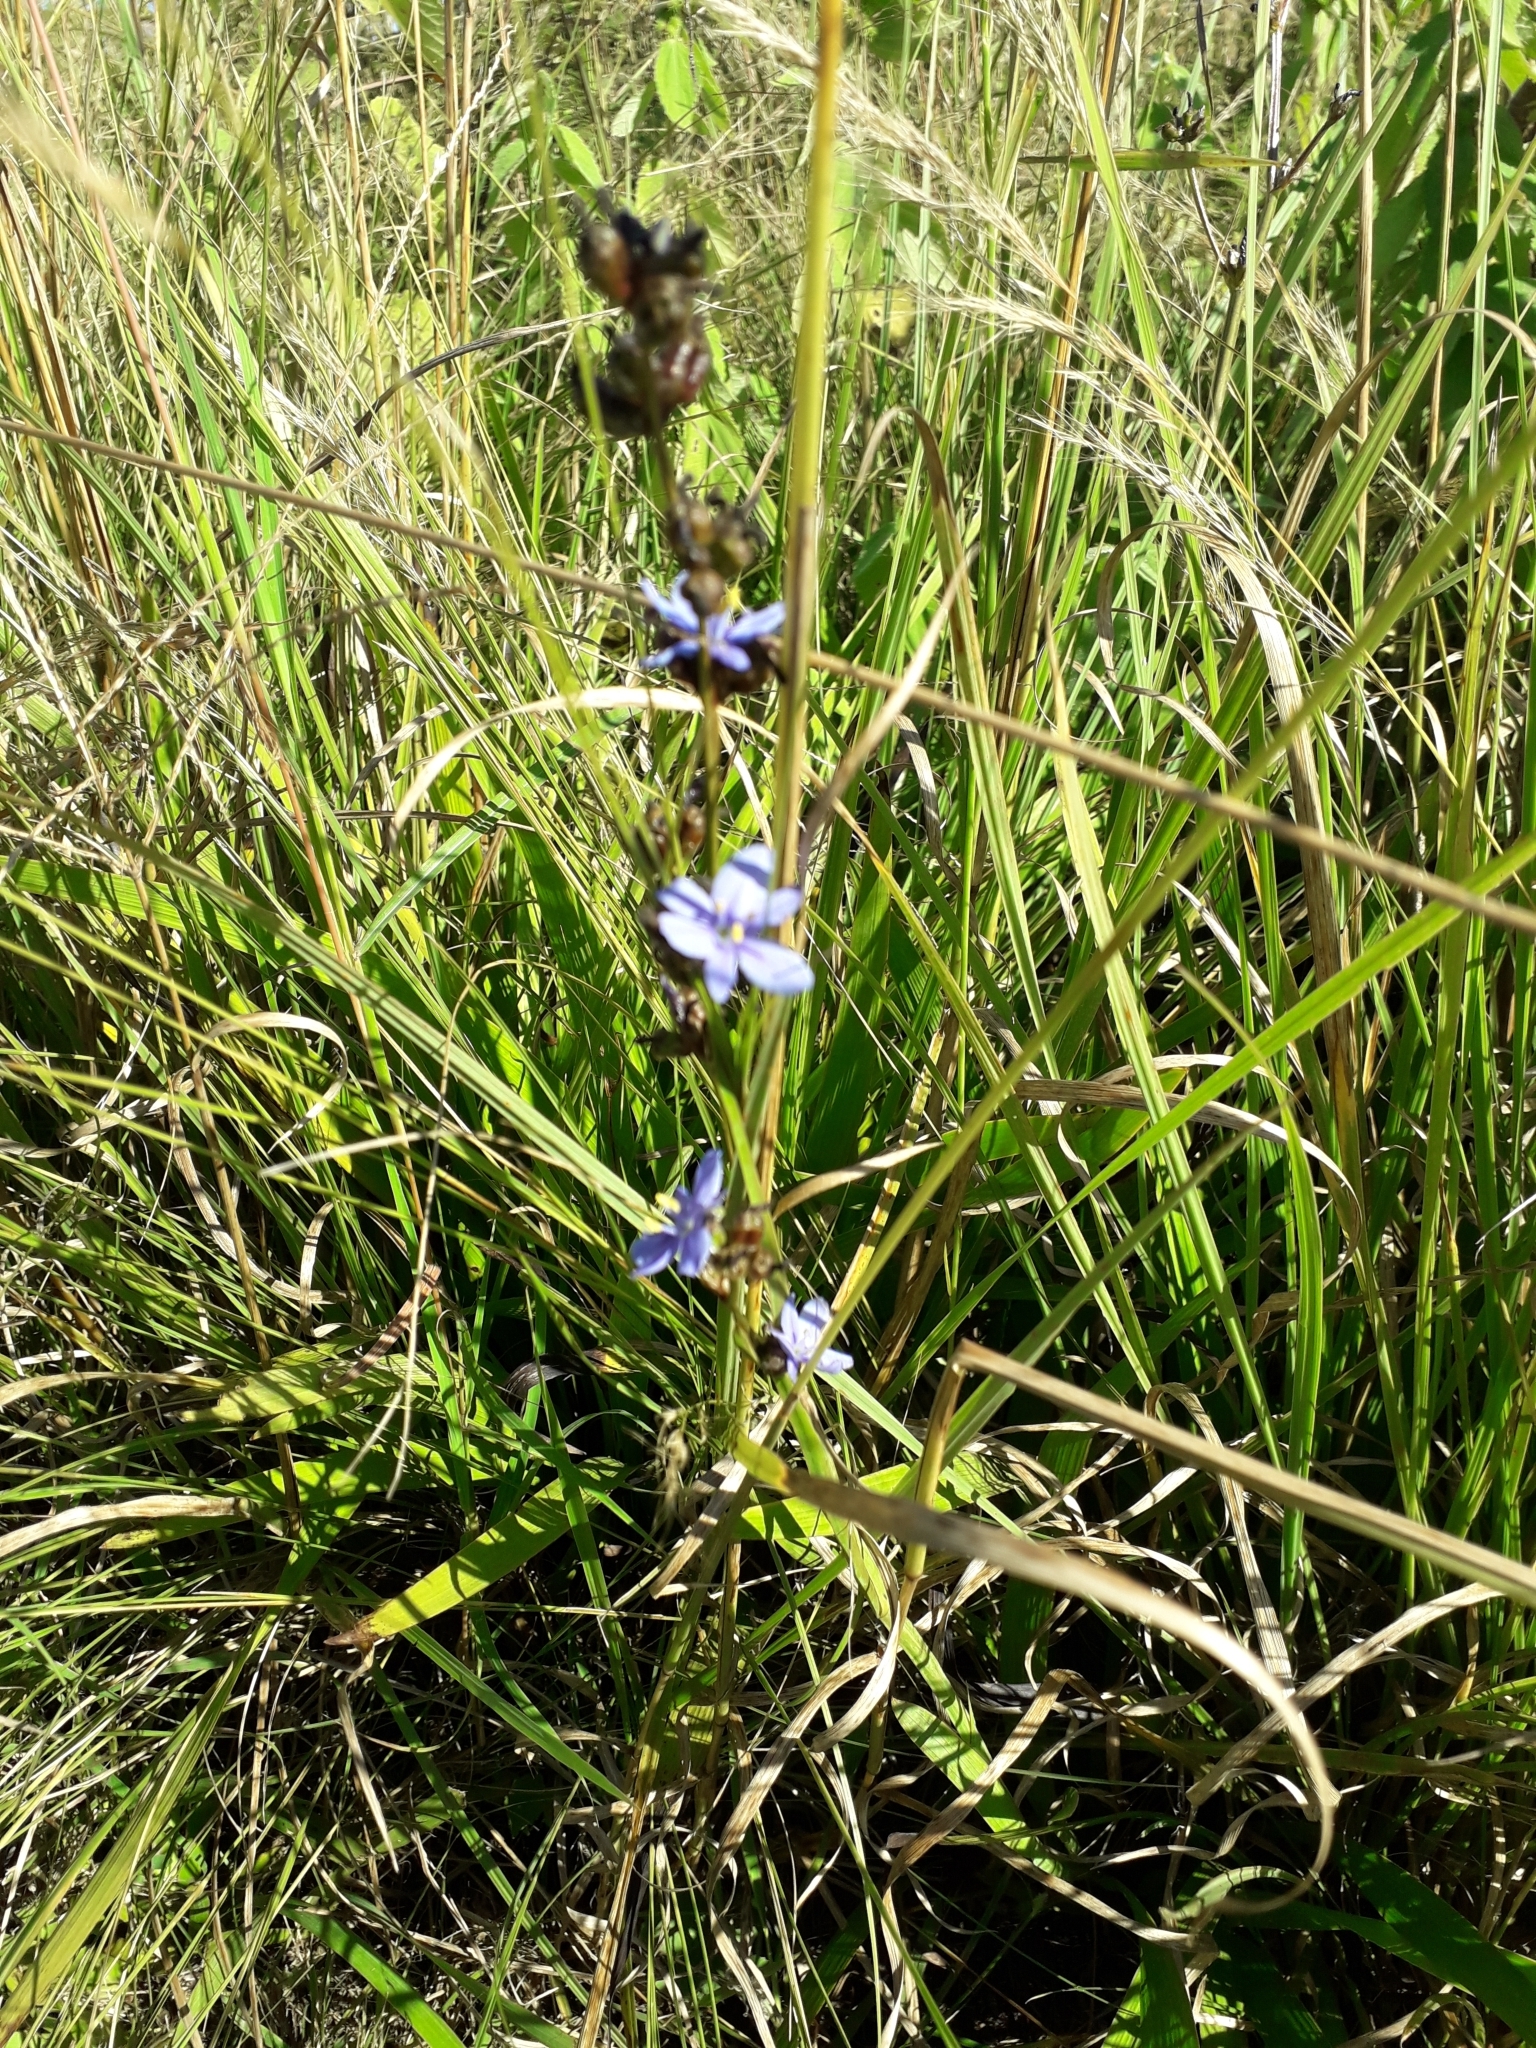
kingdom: Plantae
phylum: Tracheophyta
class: Liliopsida
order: Asparagales
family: Iridaceae
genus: Aristea
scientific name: Aristea ecklonii
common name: Blue corn-lily
